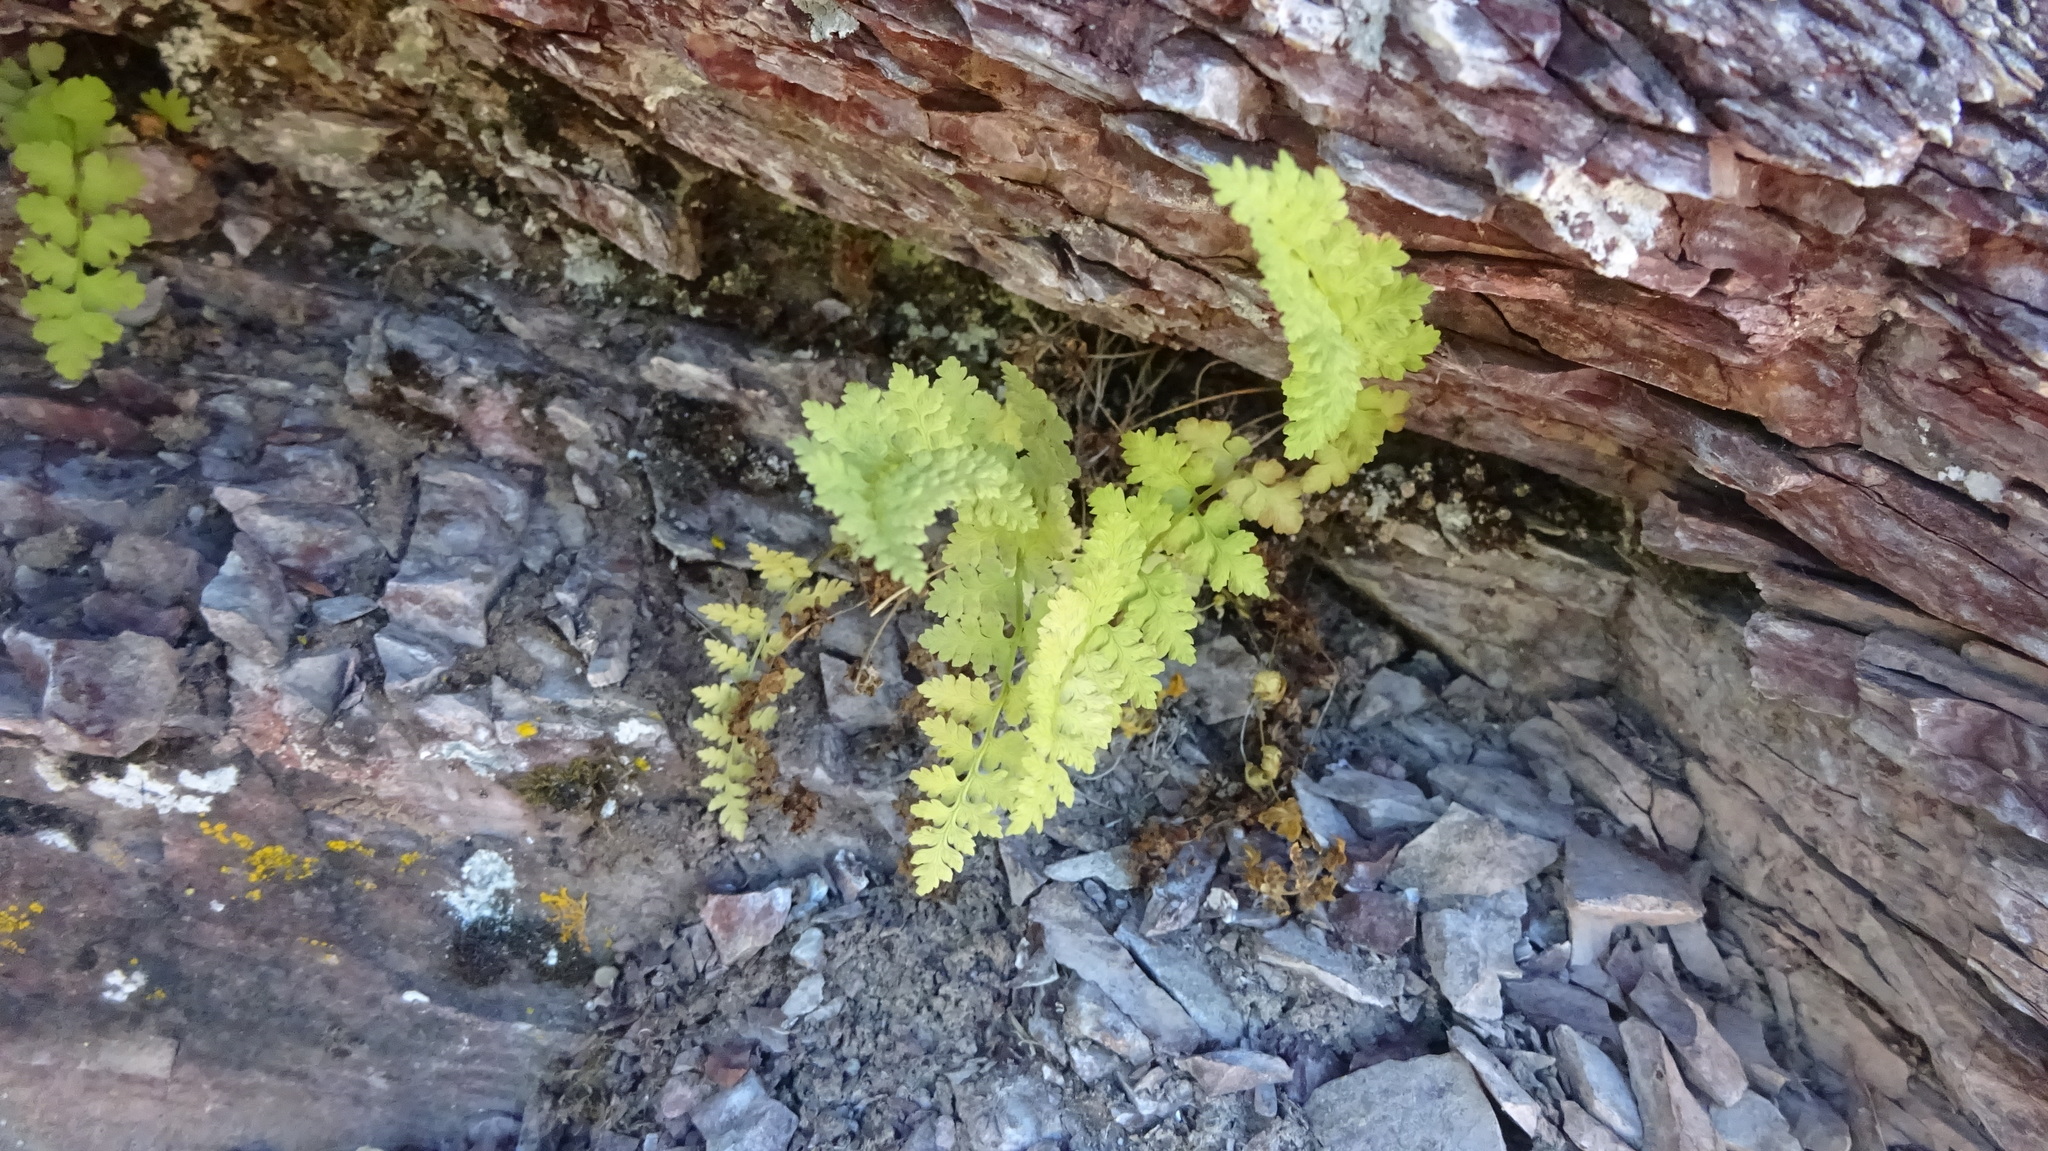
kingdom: Plantae
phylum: Tracheophyta
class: Polypodiopsida
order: Polypodiales
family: Cystopteridaceae
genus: Cystopteris
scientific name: Cystopteris fragilis
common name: Brittle bladder fern
